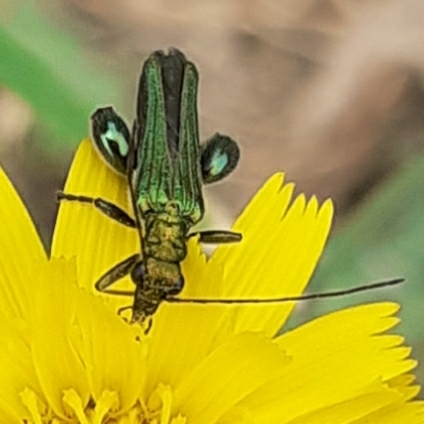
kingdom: Animalia
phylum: Arthropoda
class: Insecta
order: Coleoptera
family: Oedemeridae
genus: Oedemera
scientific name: Oedemera nobilis
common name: Swollen-thighed beetle
